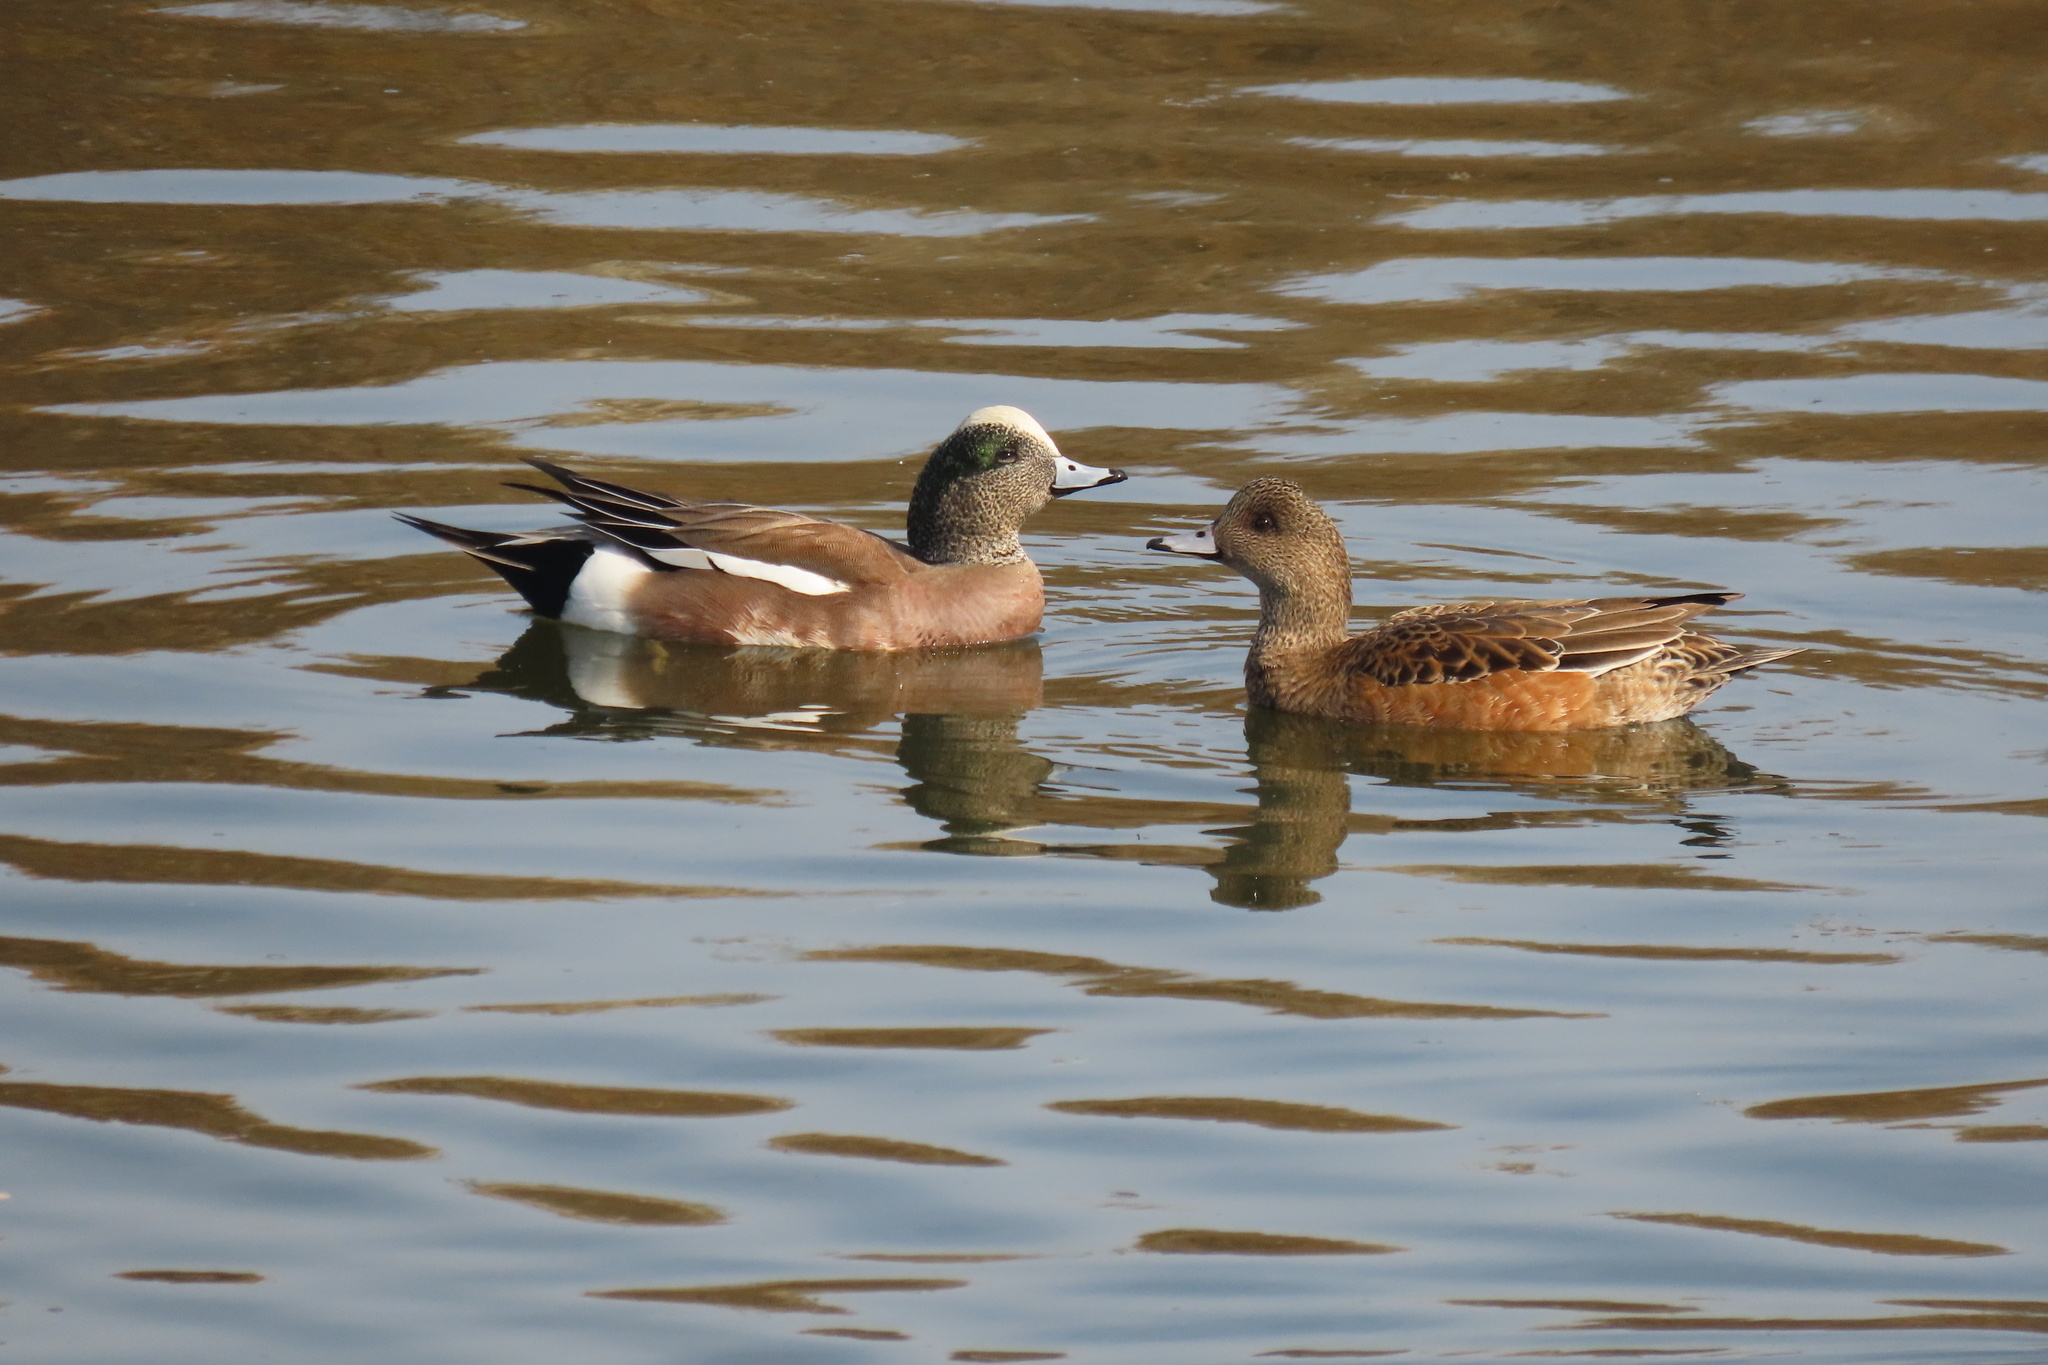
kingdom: Animalia
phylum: Chordata
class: Aves
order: Anseriformes
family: Anatidae
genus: Mareca
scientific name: Mareca americana
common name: American wigeon
